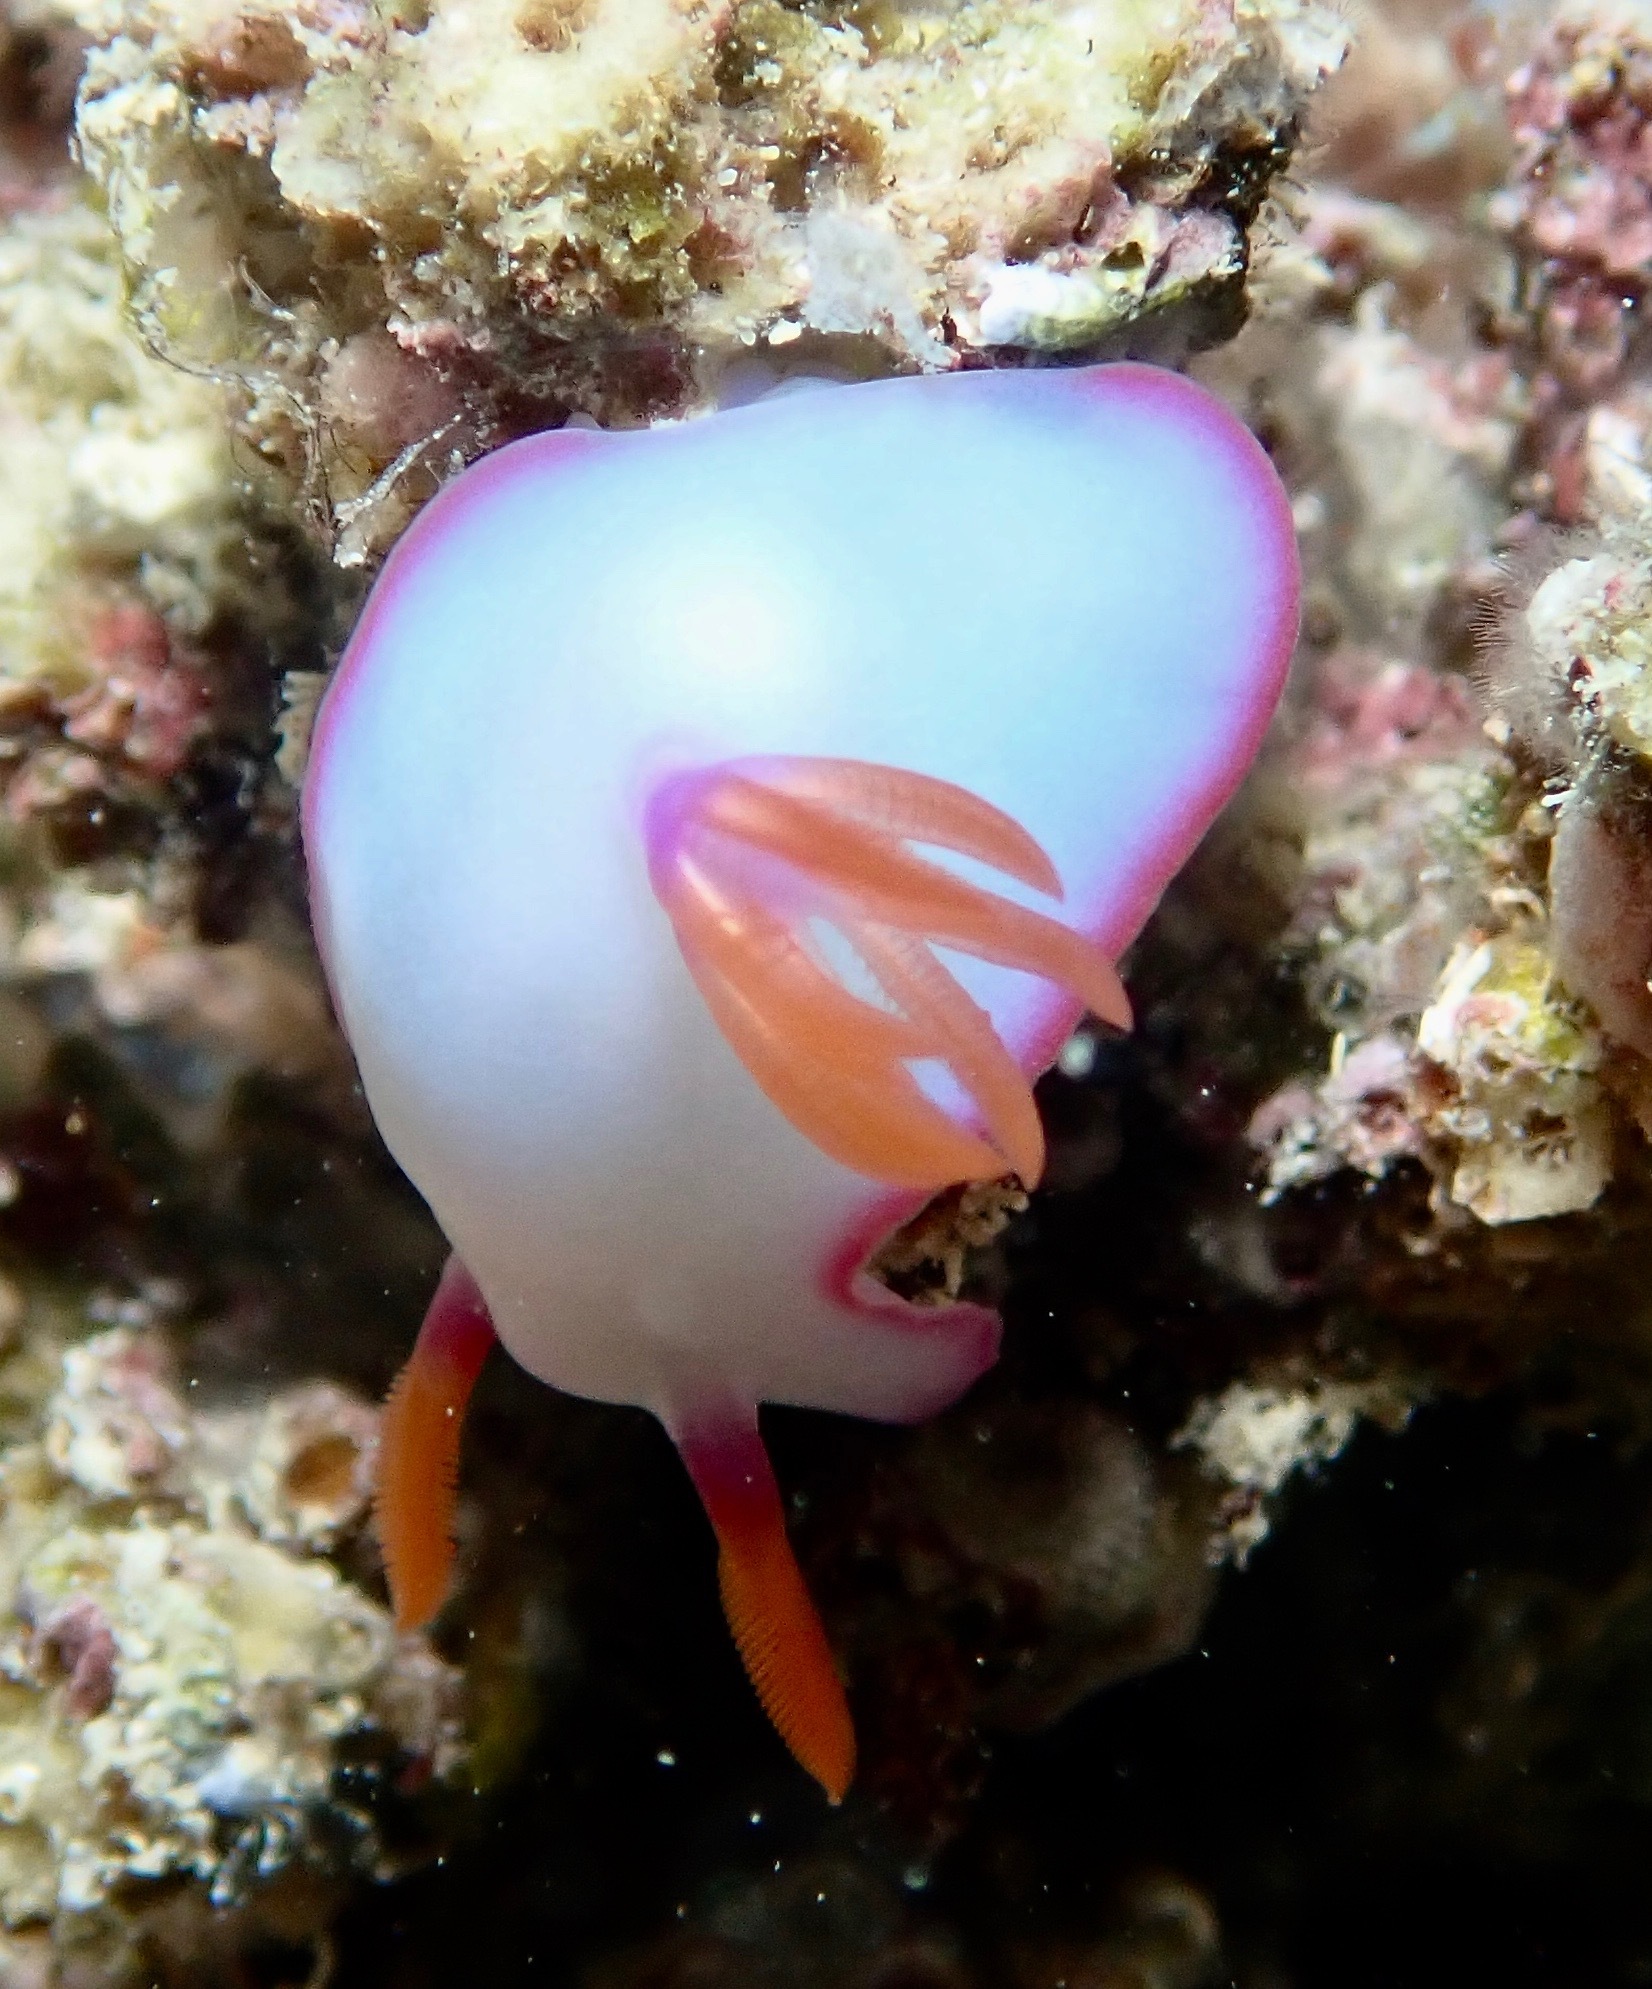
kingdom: Animalia
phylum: Mollusca
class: Gastropoda
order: Nudibranchia
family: Chromodorididae
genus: Hypselodoris
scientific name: Hypselodoris brycei
